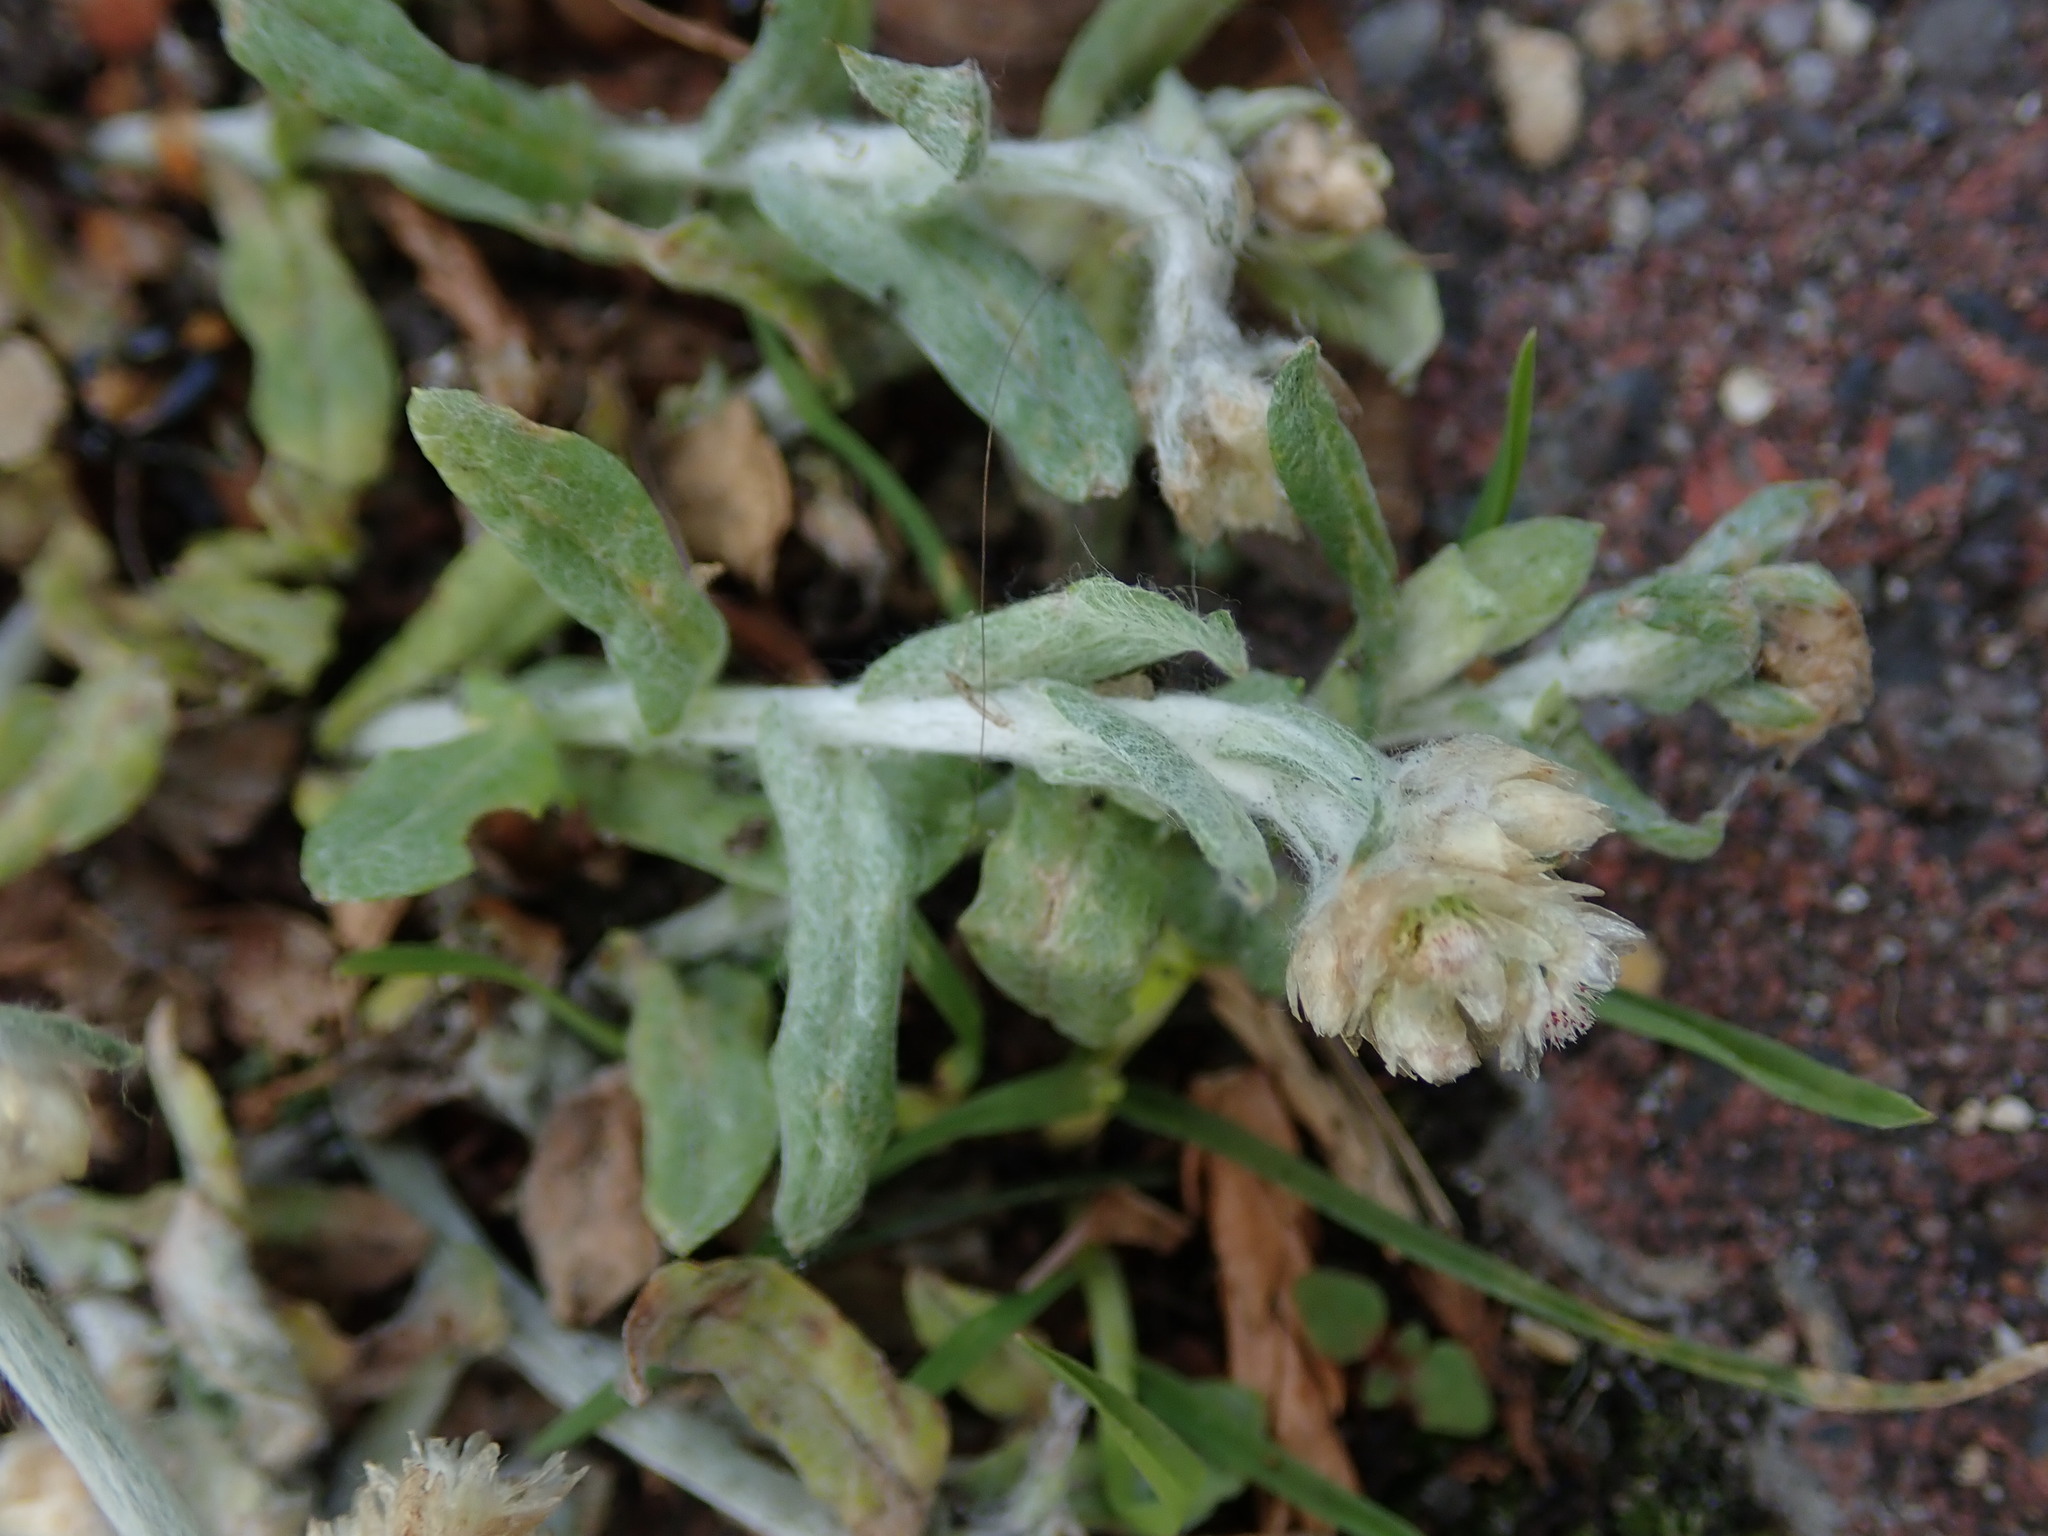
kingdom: Plantae
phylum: Tracheophyta
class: Magnoliopsida
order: Asterales
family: Asteraceae
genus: Helichrysum
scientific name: Helichrysum luteoalbum
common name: Daisy
